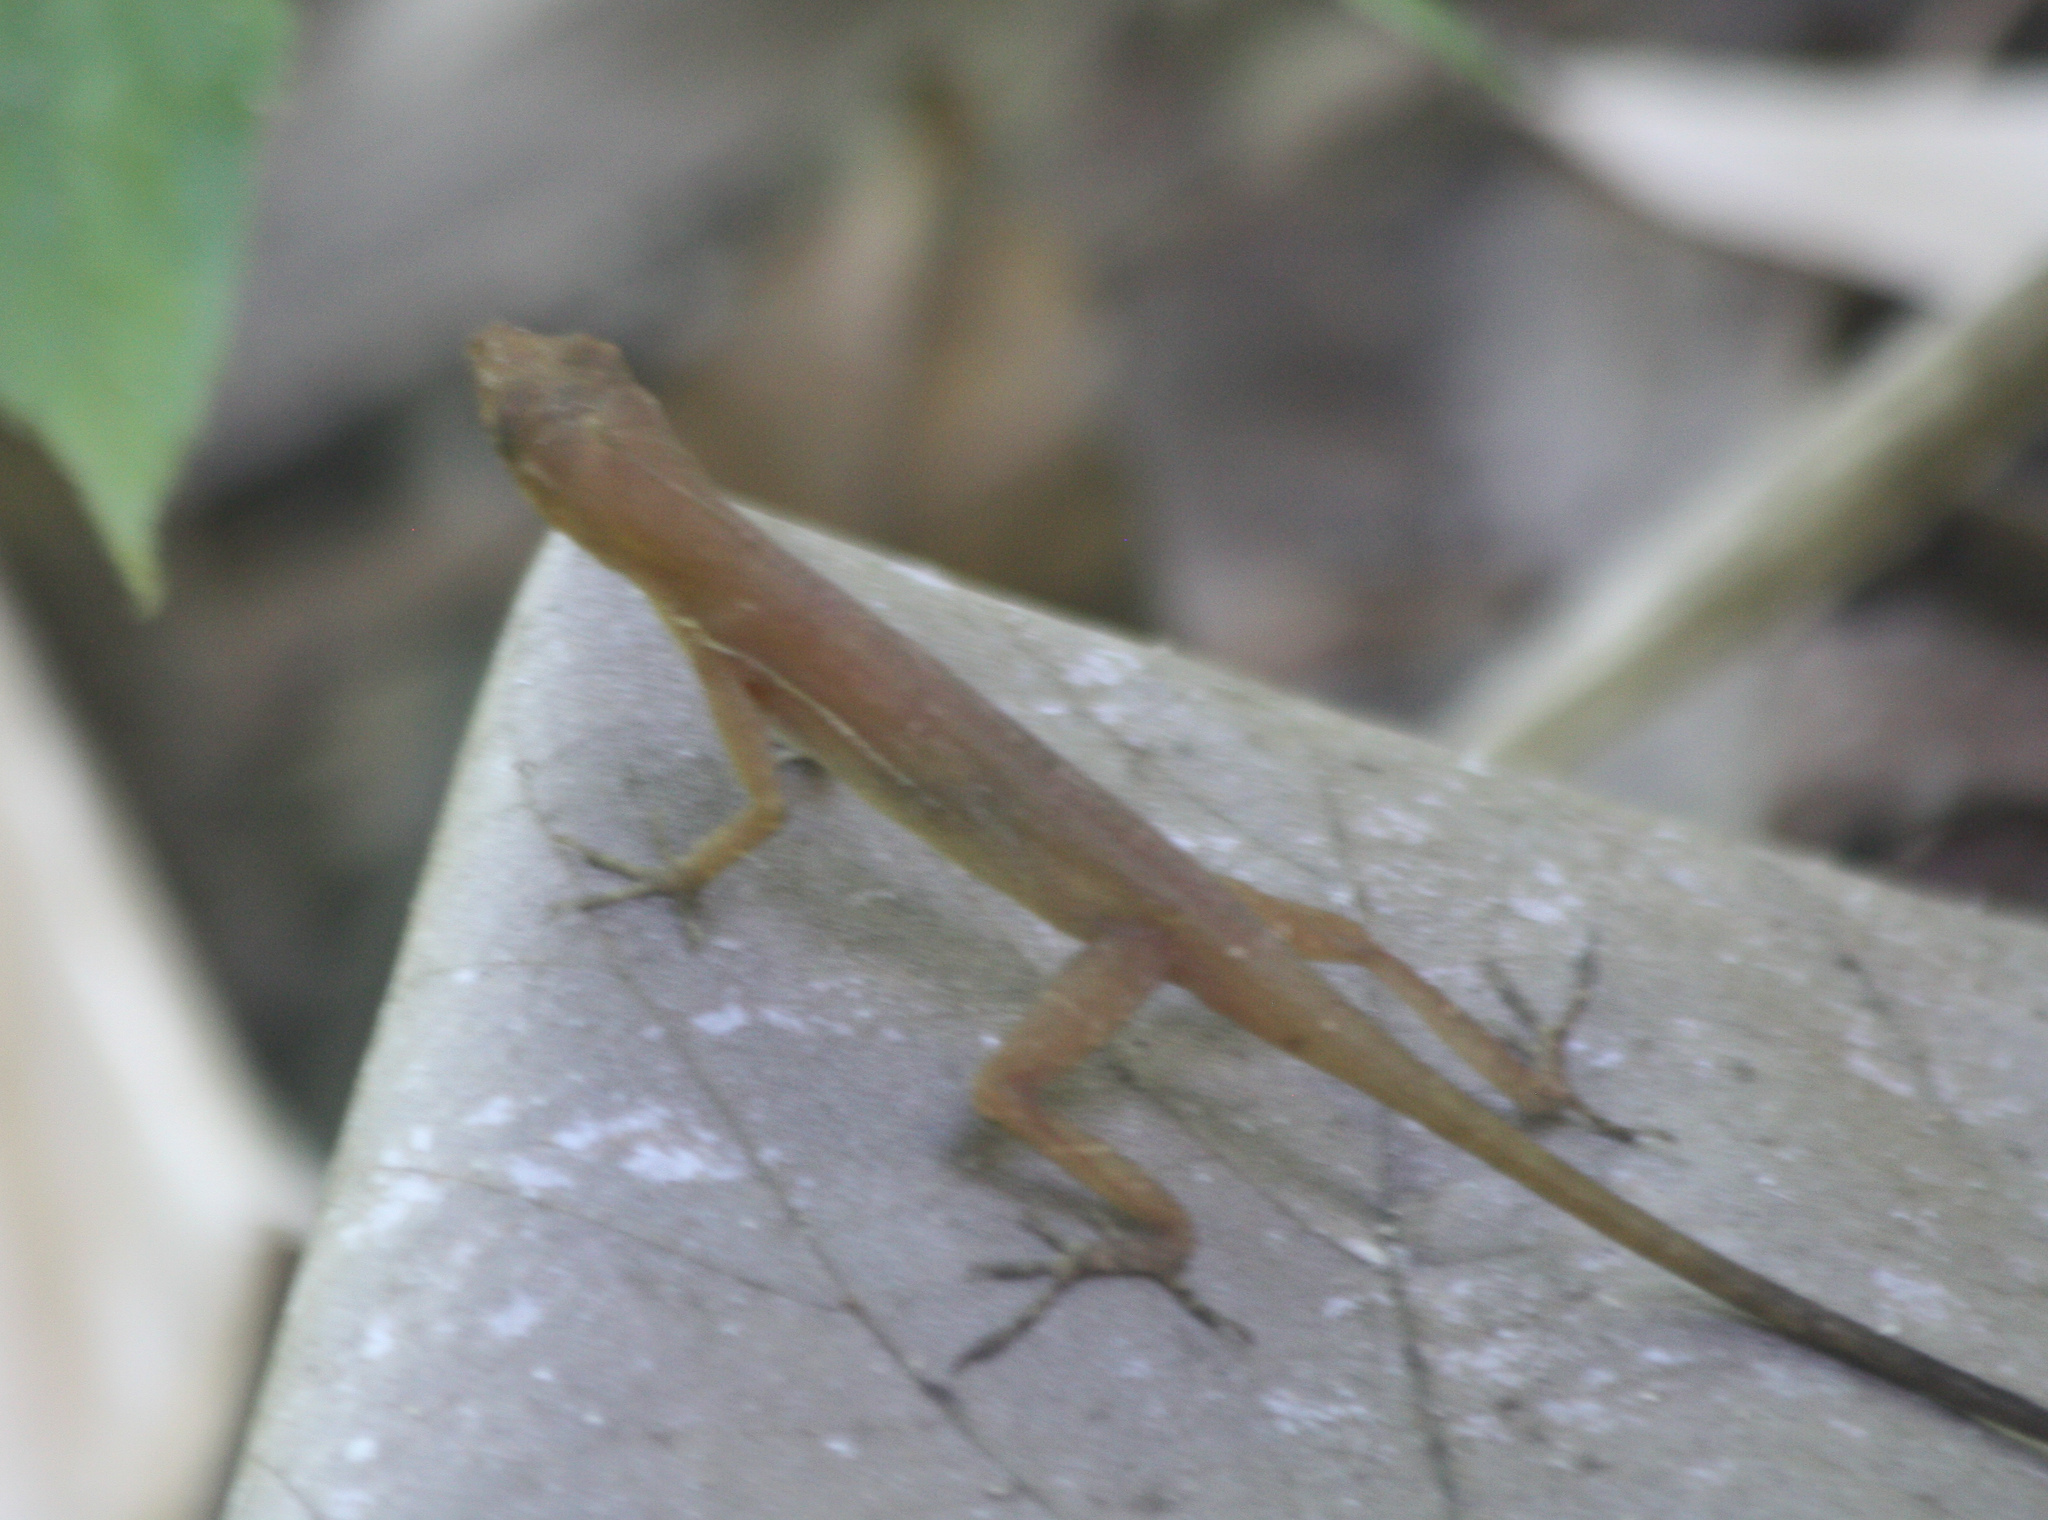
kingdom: Animalia
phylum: Chordata
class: Squamata
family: Dactyloidae
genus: Anolis
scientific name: Anolis osa
